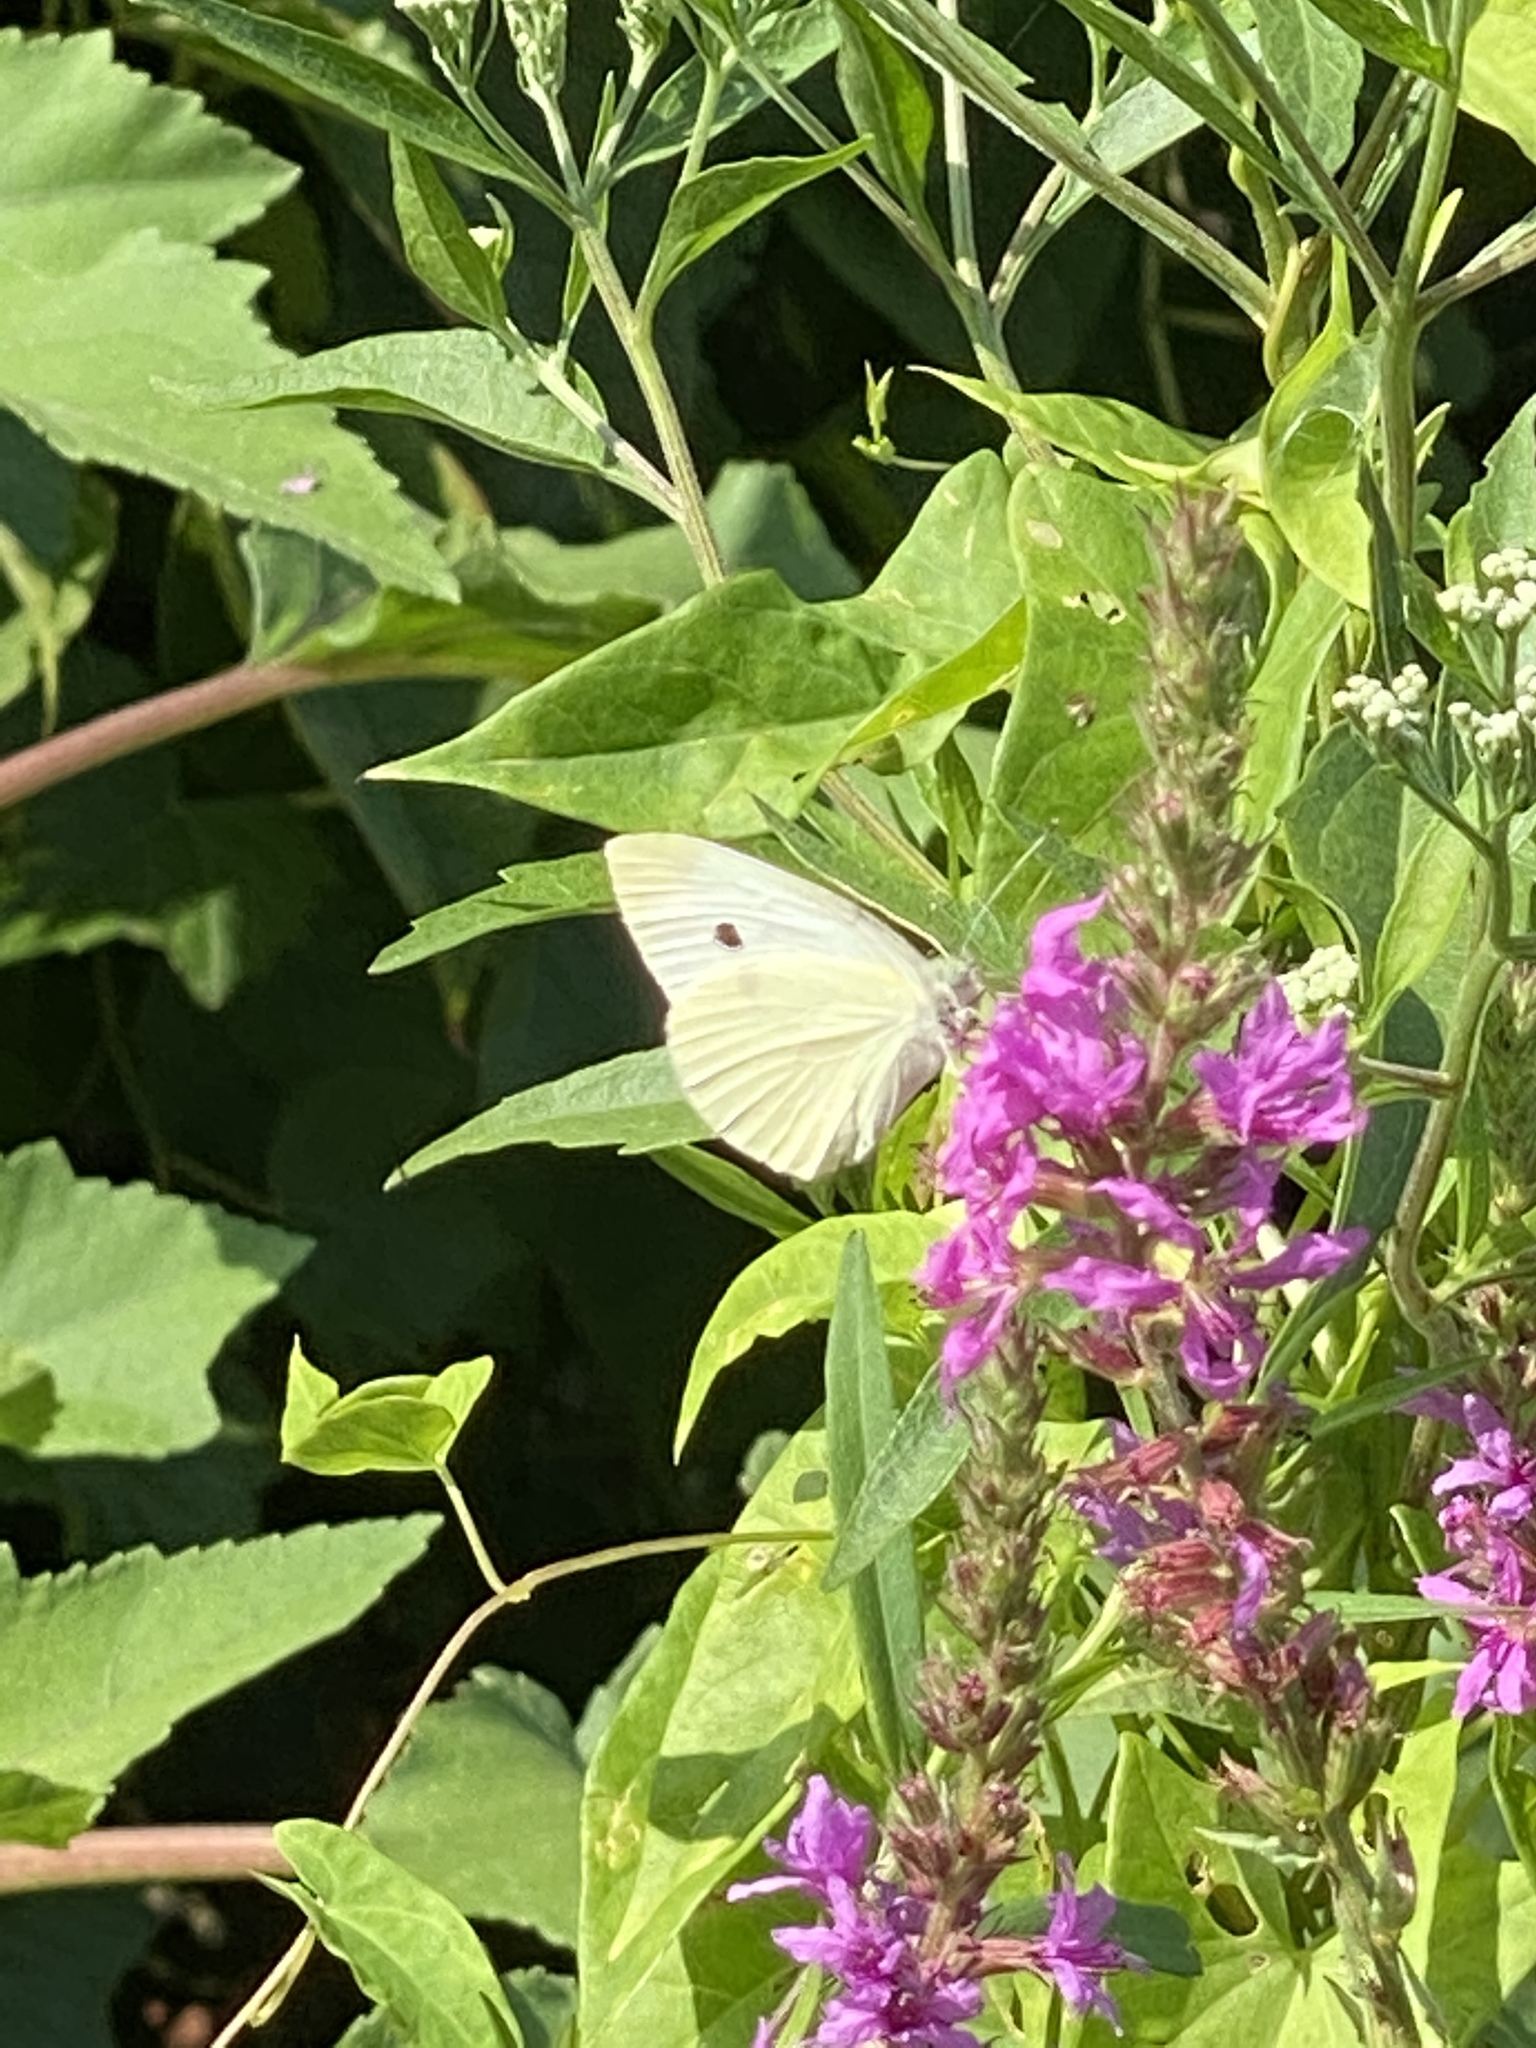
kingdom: Animalia
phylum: Arthropoda
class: Insecta
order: Lepidoptera
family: Pieridae
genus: Pieris
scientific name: Pieris rapae
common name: Small white
